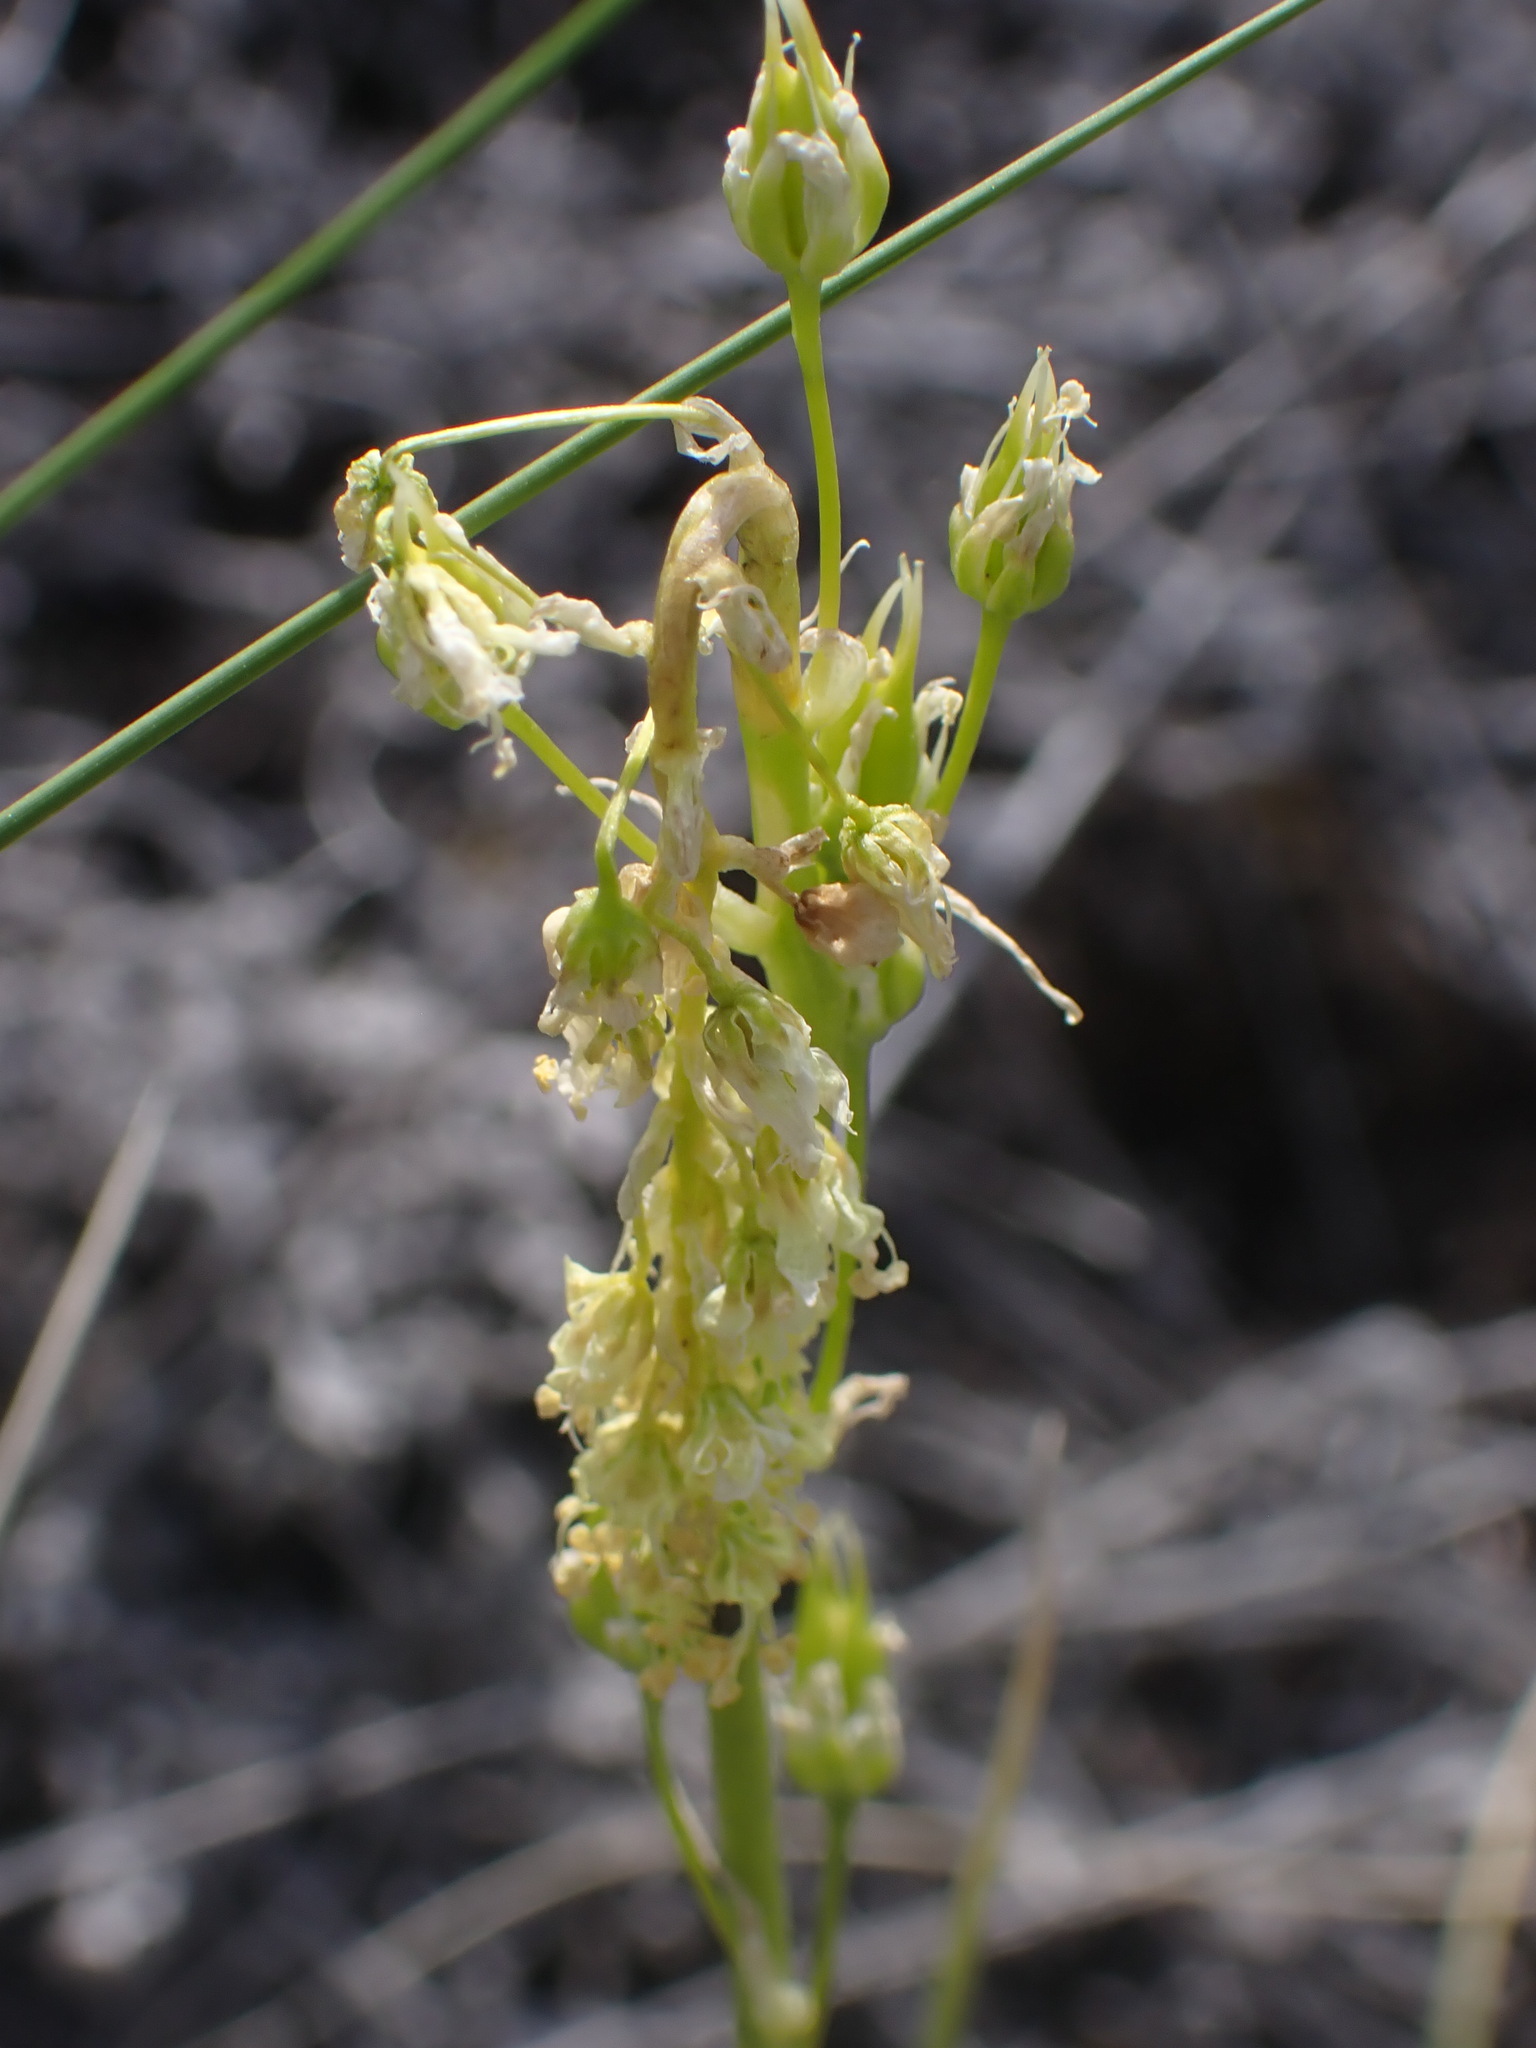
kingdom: Plantae
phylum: Tracheophyta
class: Liliopsida
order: Liliales
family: Melanthiaceae
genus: Toxicoscordion
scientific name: Toxicoscordion venenosum
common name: Meadow death camas
